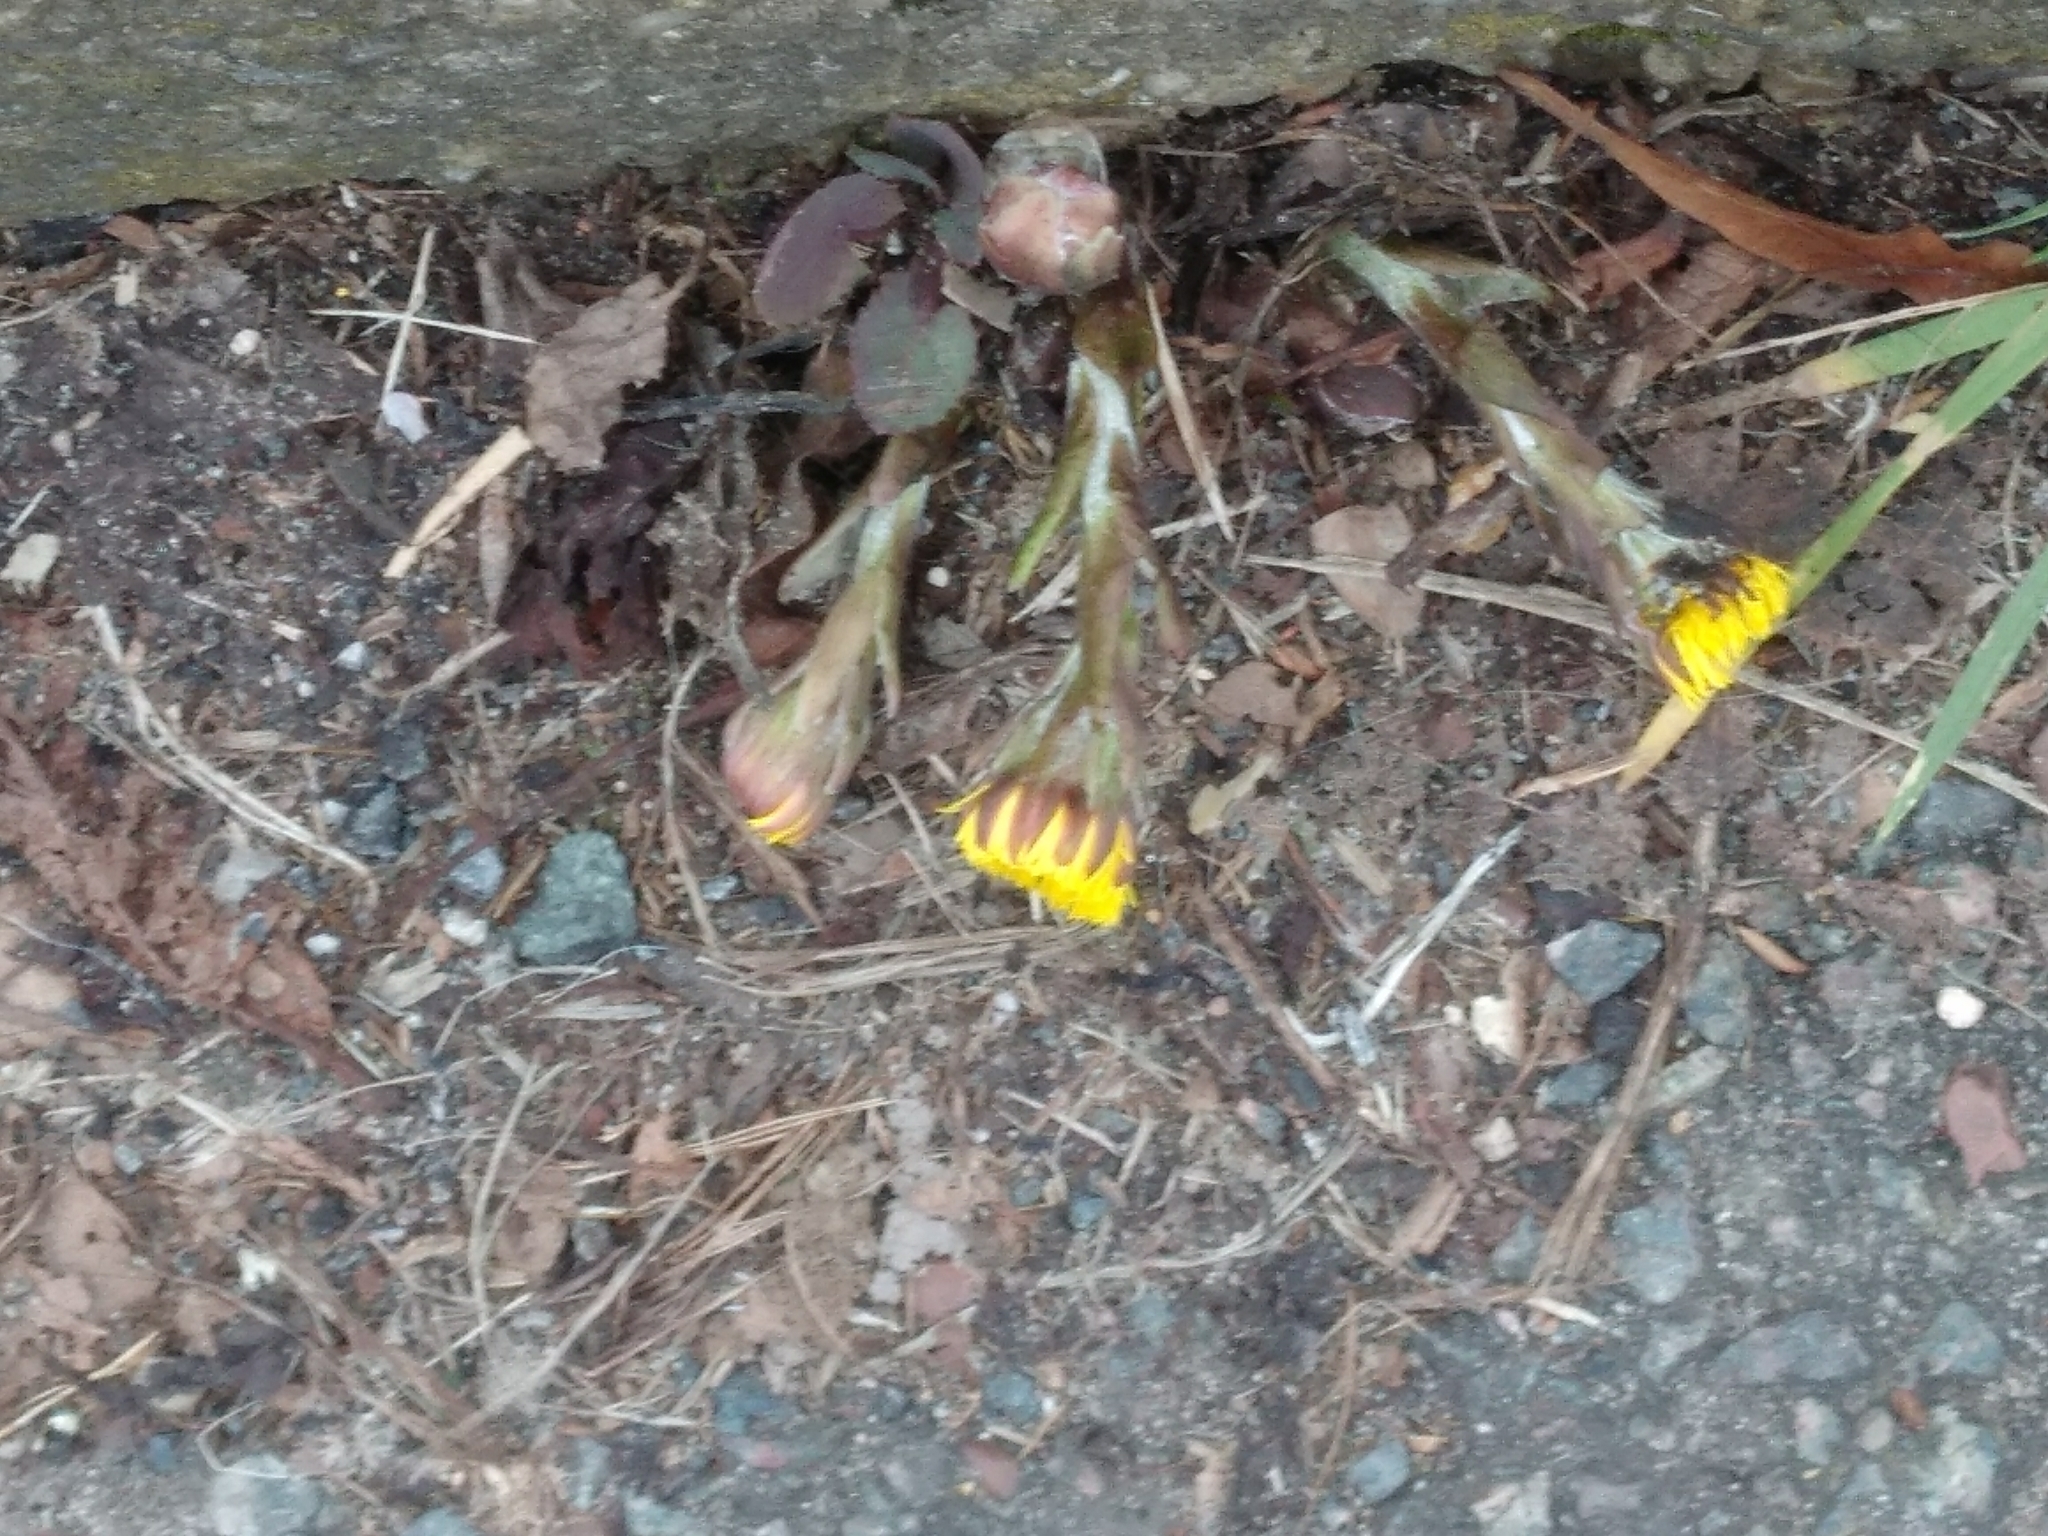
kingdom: Plantae
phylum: Tracheophyta
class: Magnoliopsida
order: Asterales
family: Asteraceae
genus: Tussilago
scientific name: Tussilago farfara
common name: Coltsfoot
